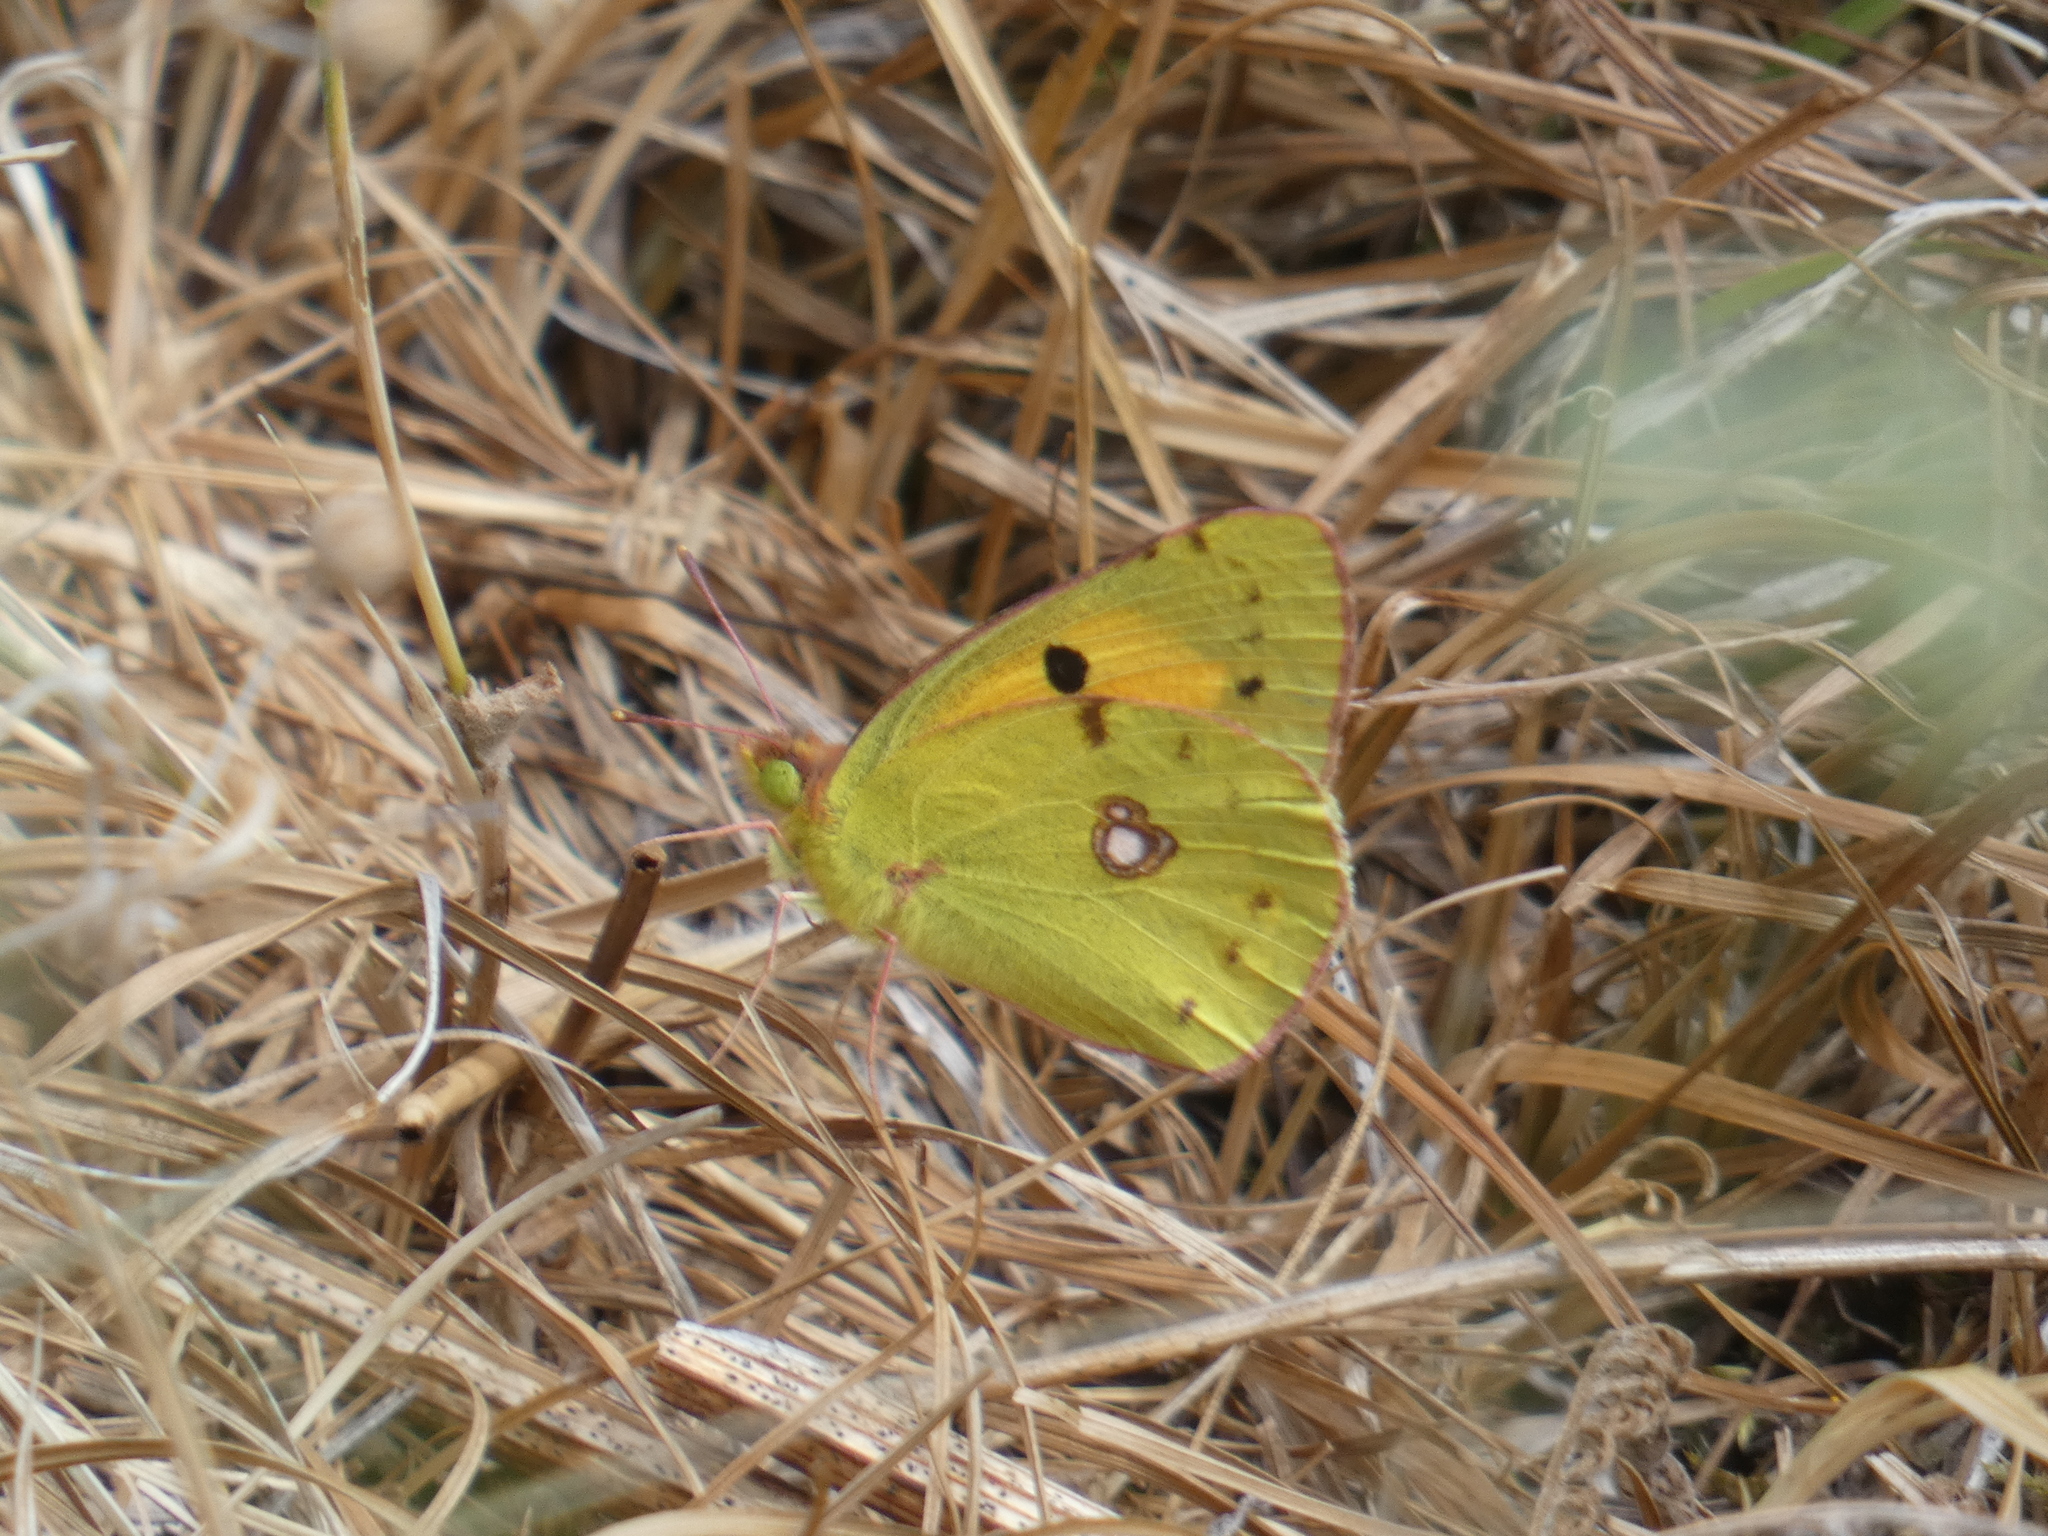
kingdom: Animalia
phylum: Arthropoda
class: Insecta
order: Lepidoptera
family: Pieridae
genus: Colias
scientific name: Colias croceus
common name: Clouded yellow
